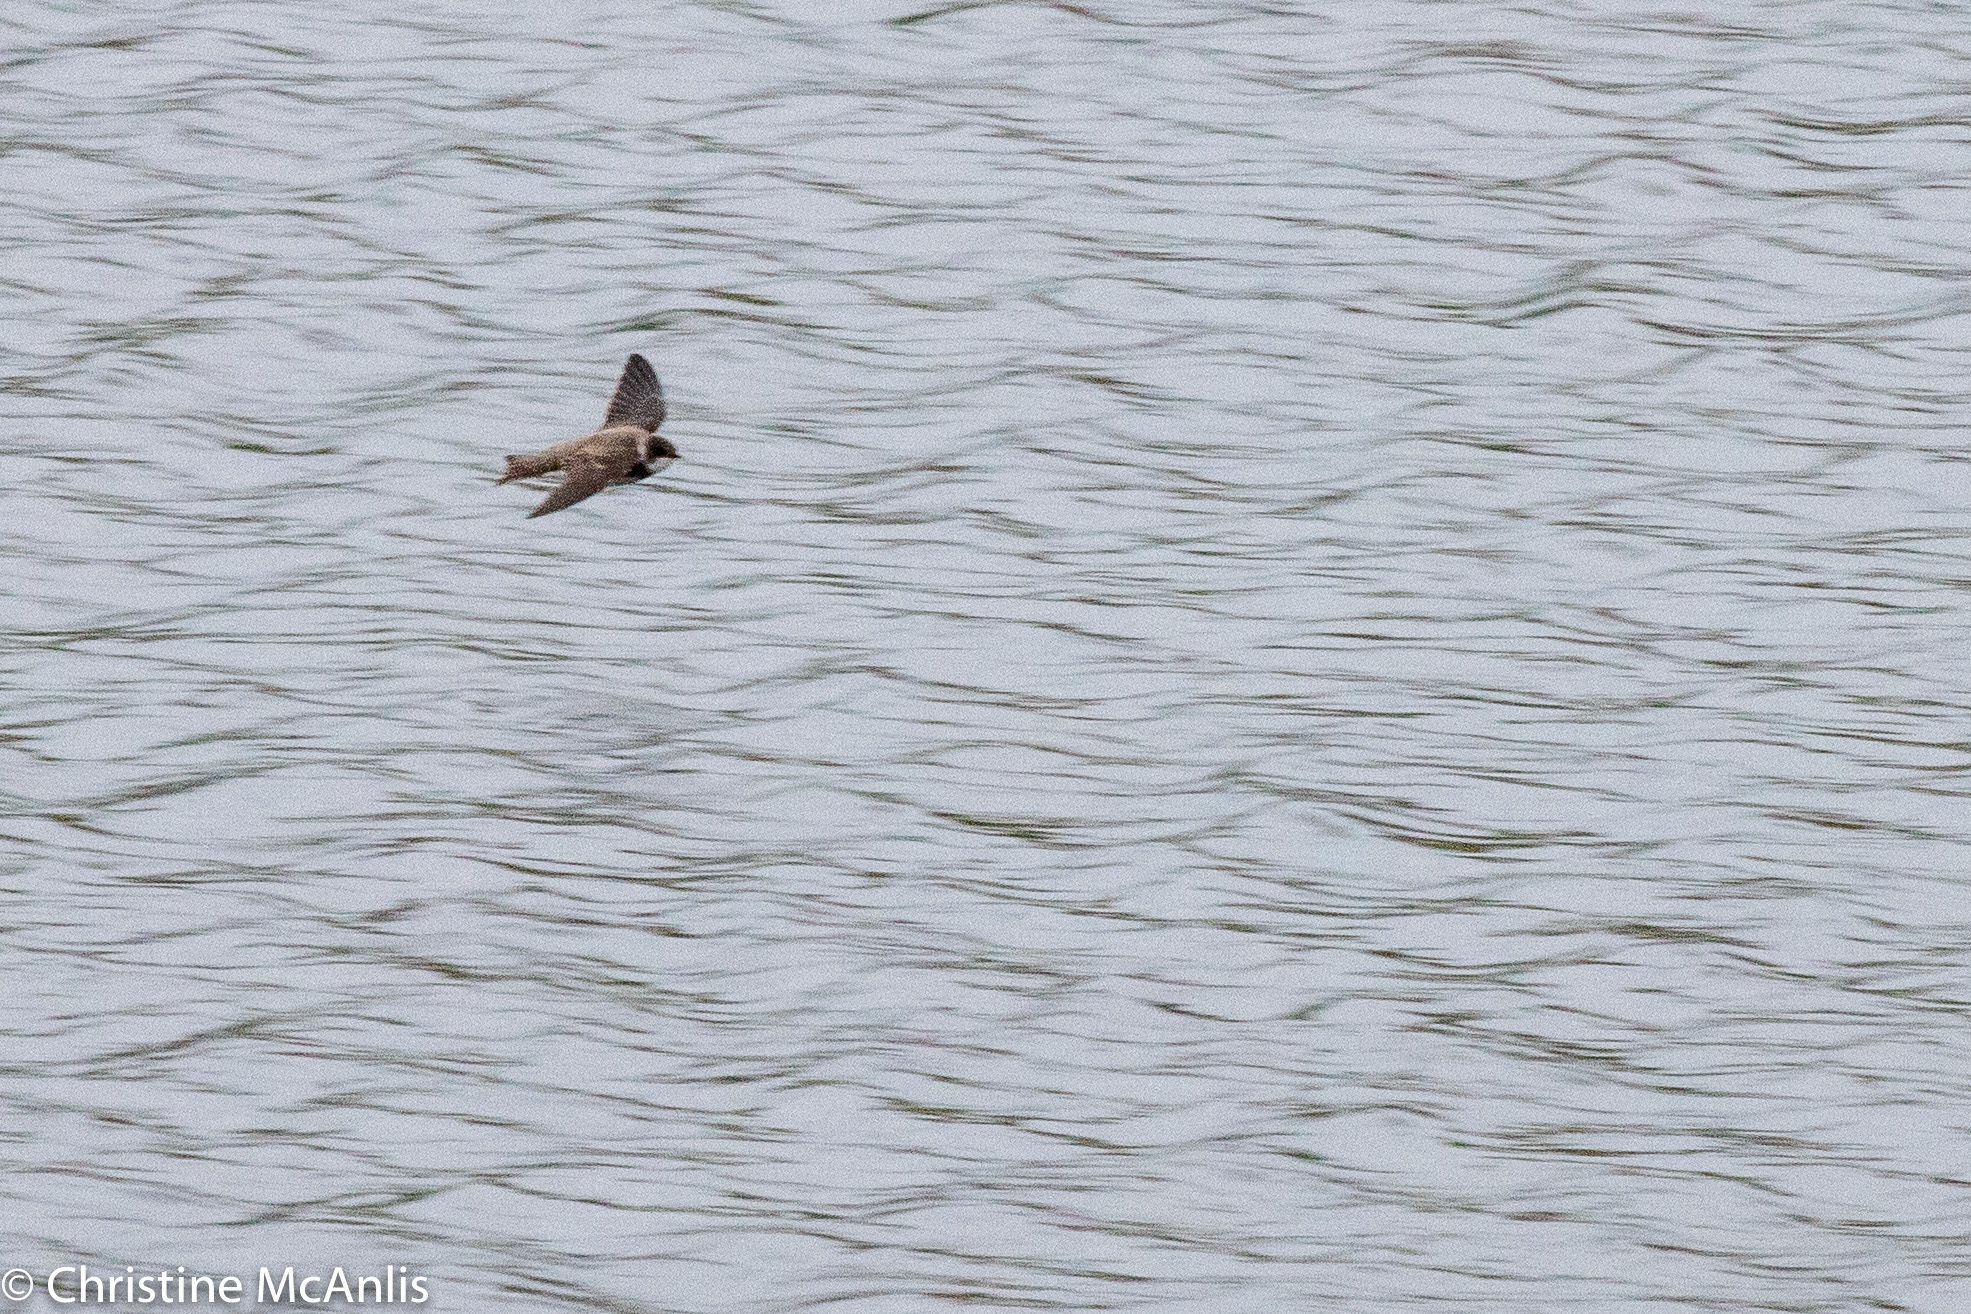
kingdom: Animalia
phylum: Chordata
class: Aves
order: Passeriformes
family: Hirundinidae
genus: Riparia
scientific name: Riparia riparia
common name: Sand martin
